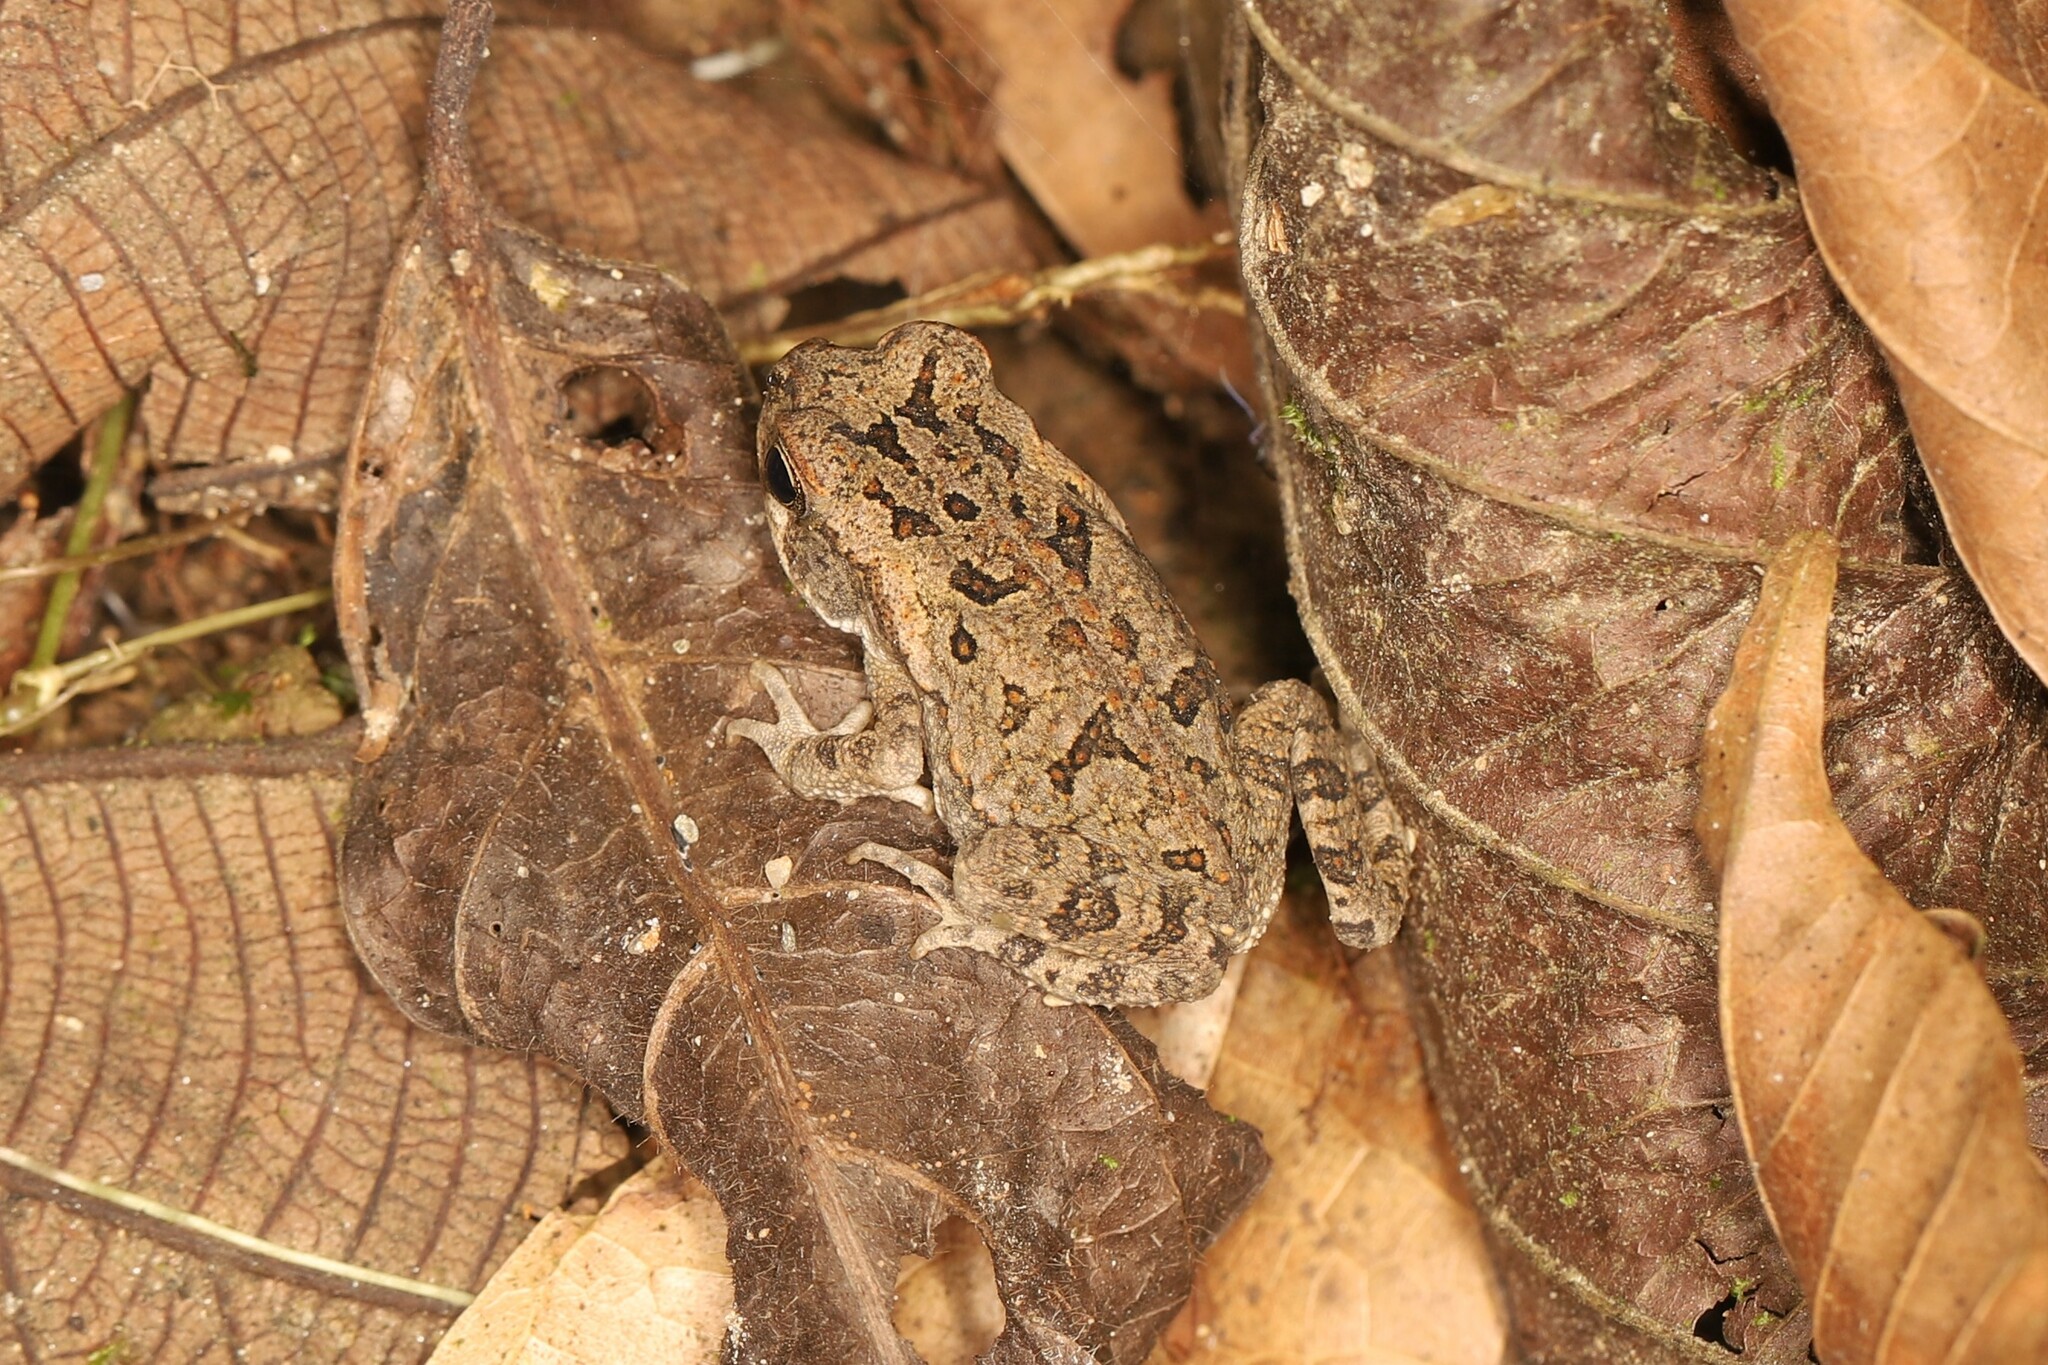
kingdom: Animalia
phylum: Chordata
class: Amphibia
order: Anura
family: Bufonidae
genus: Rhinella
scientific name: Rhinella horribilis
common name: Mesoamerican cane toad
